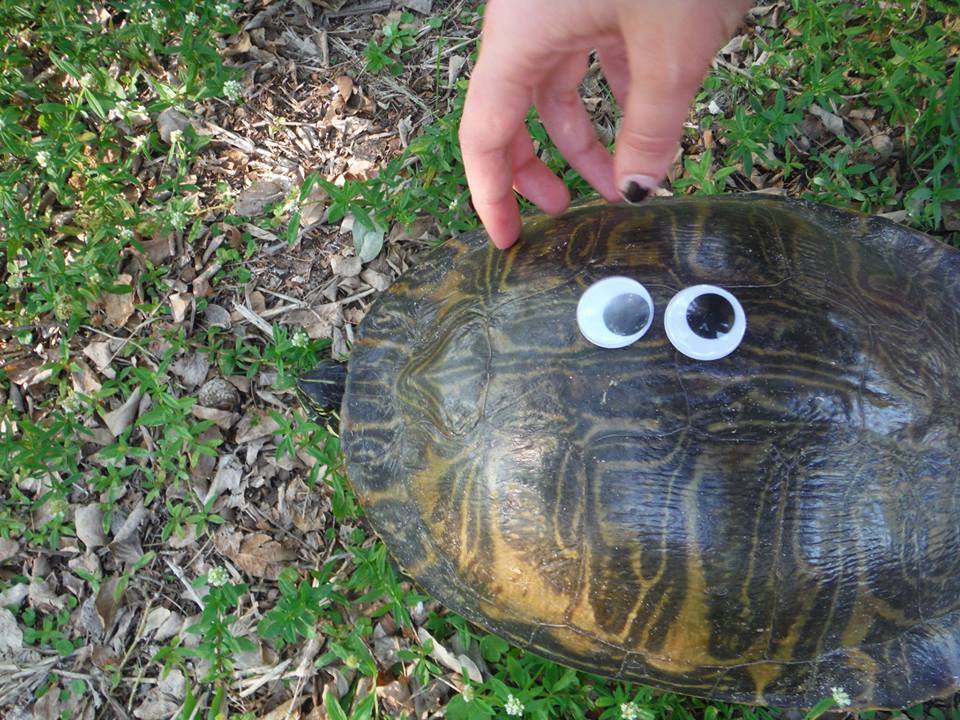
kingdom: Animalia
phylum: Chordata
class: Testudines
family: Emydidae
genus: Pseudemys
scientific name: Pseudemys peninsularis
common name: Peninsula cooter
